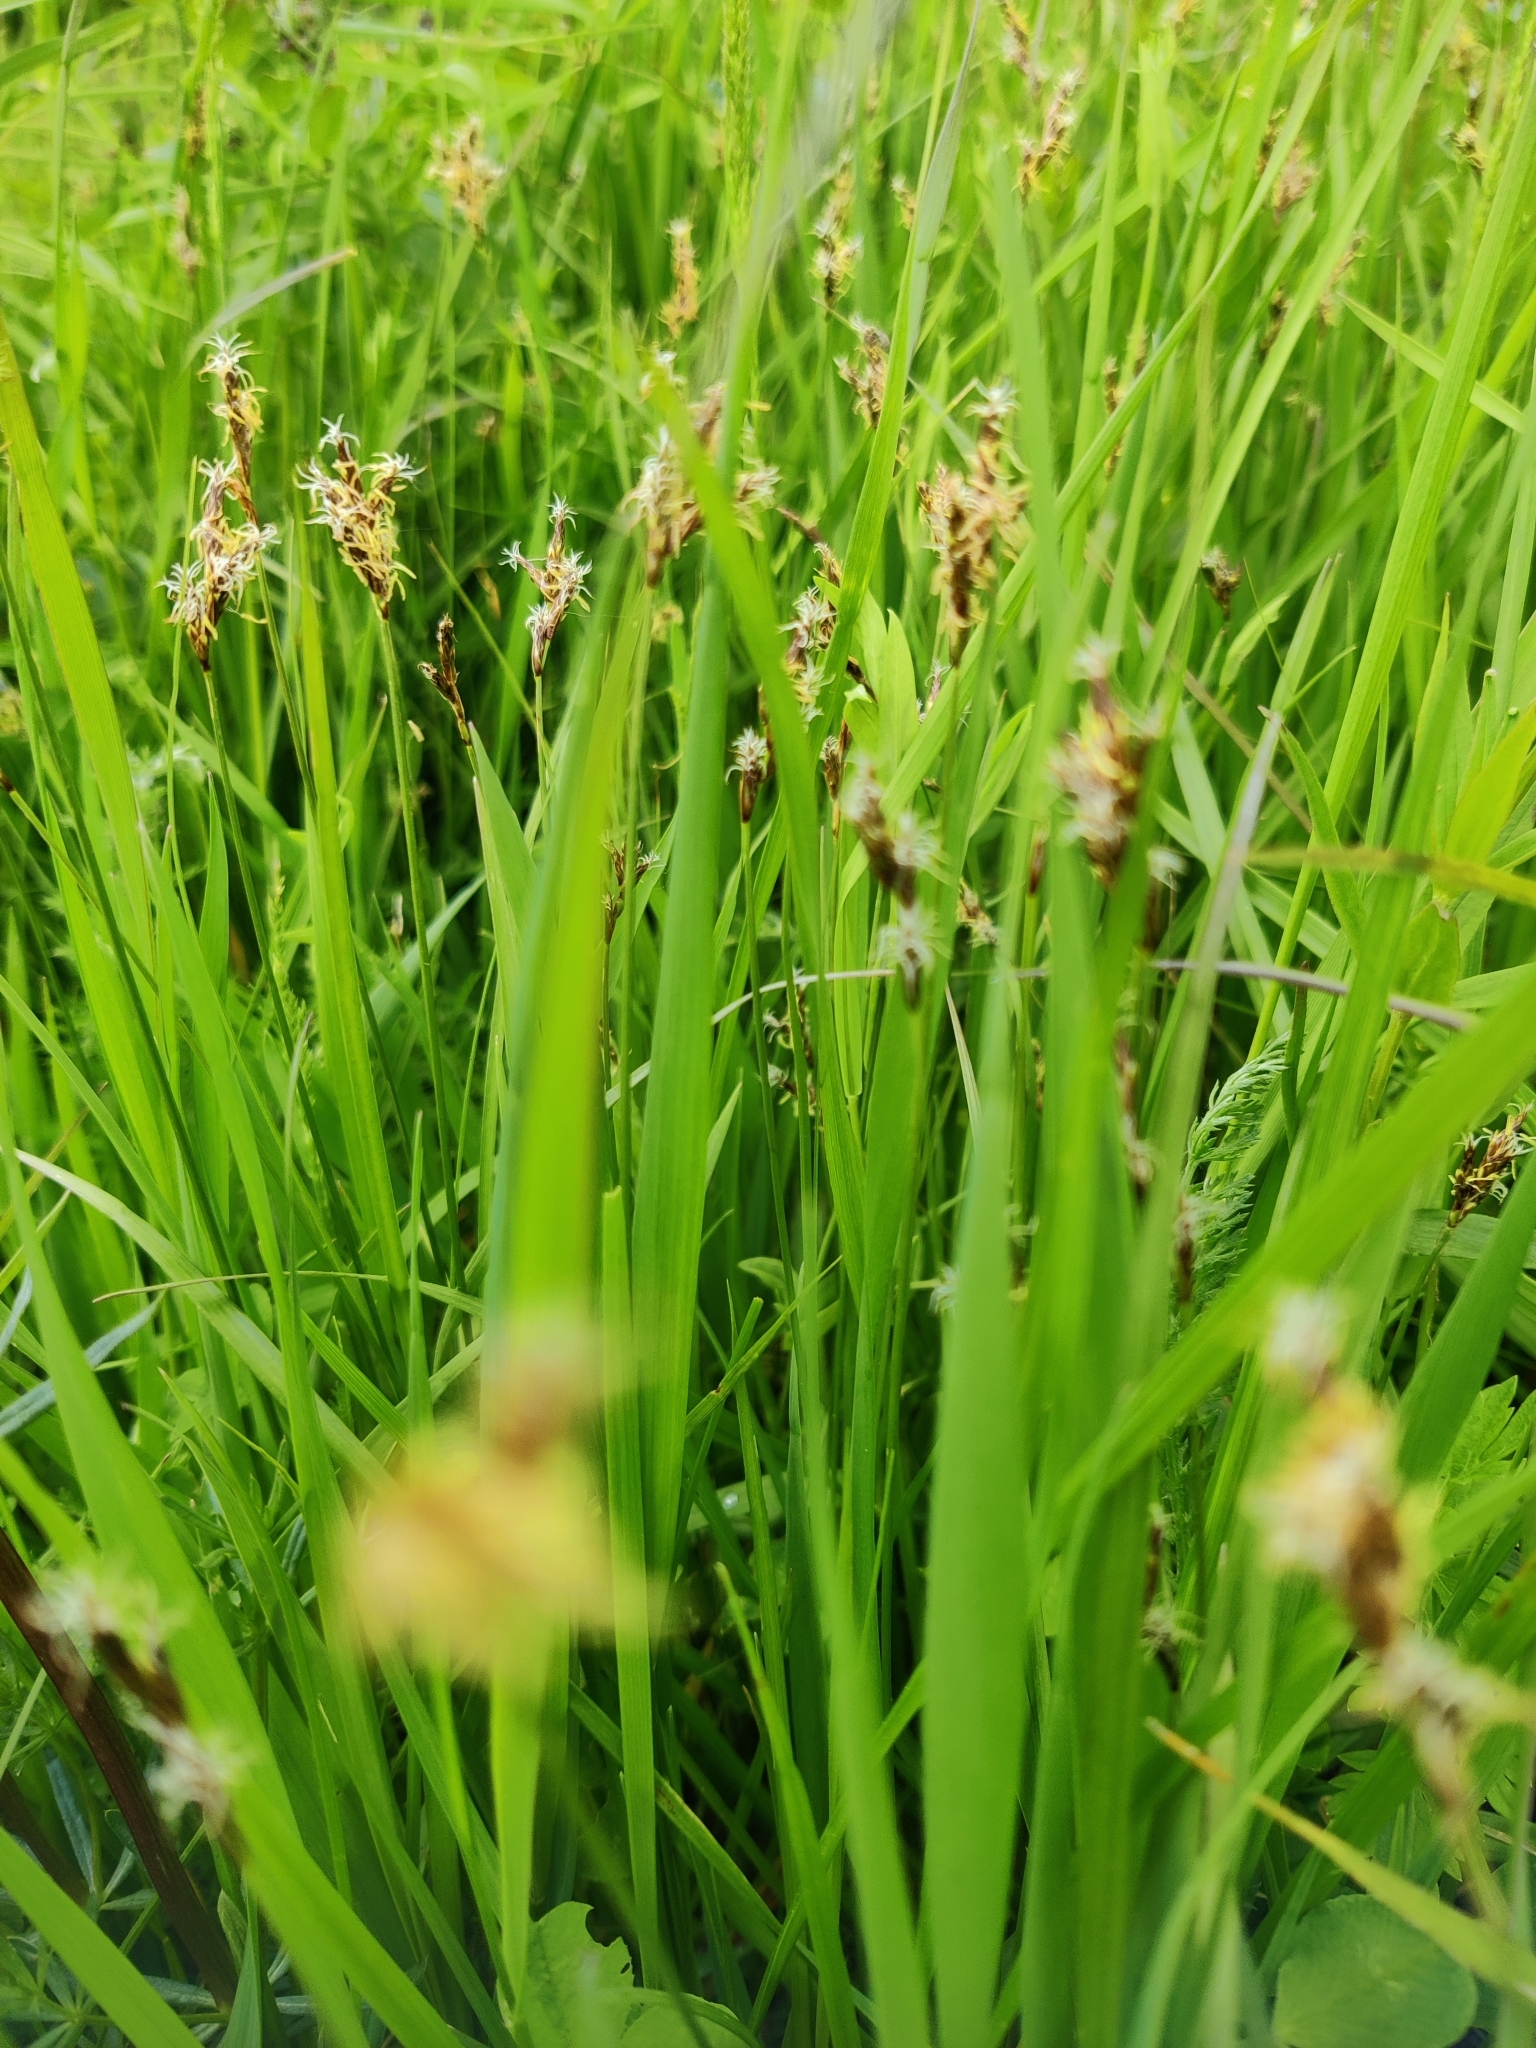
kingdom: Plantae
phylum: Tracheophyta
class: Liliopsida
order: Poales
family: Cyperaceae
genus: Carex
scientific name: Carex praecox
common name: Early sedge
